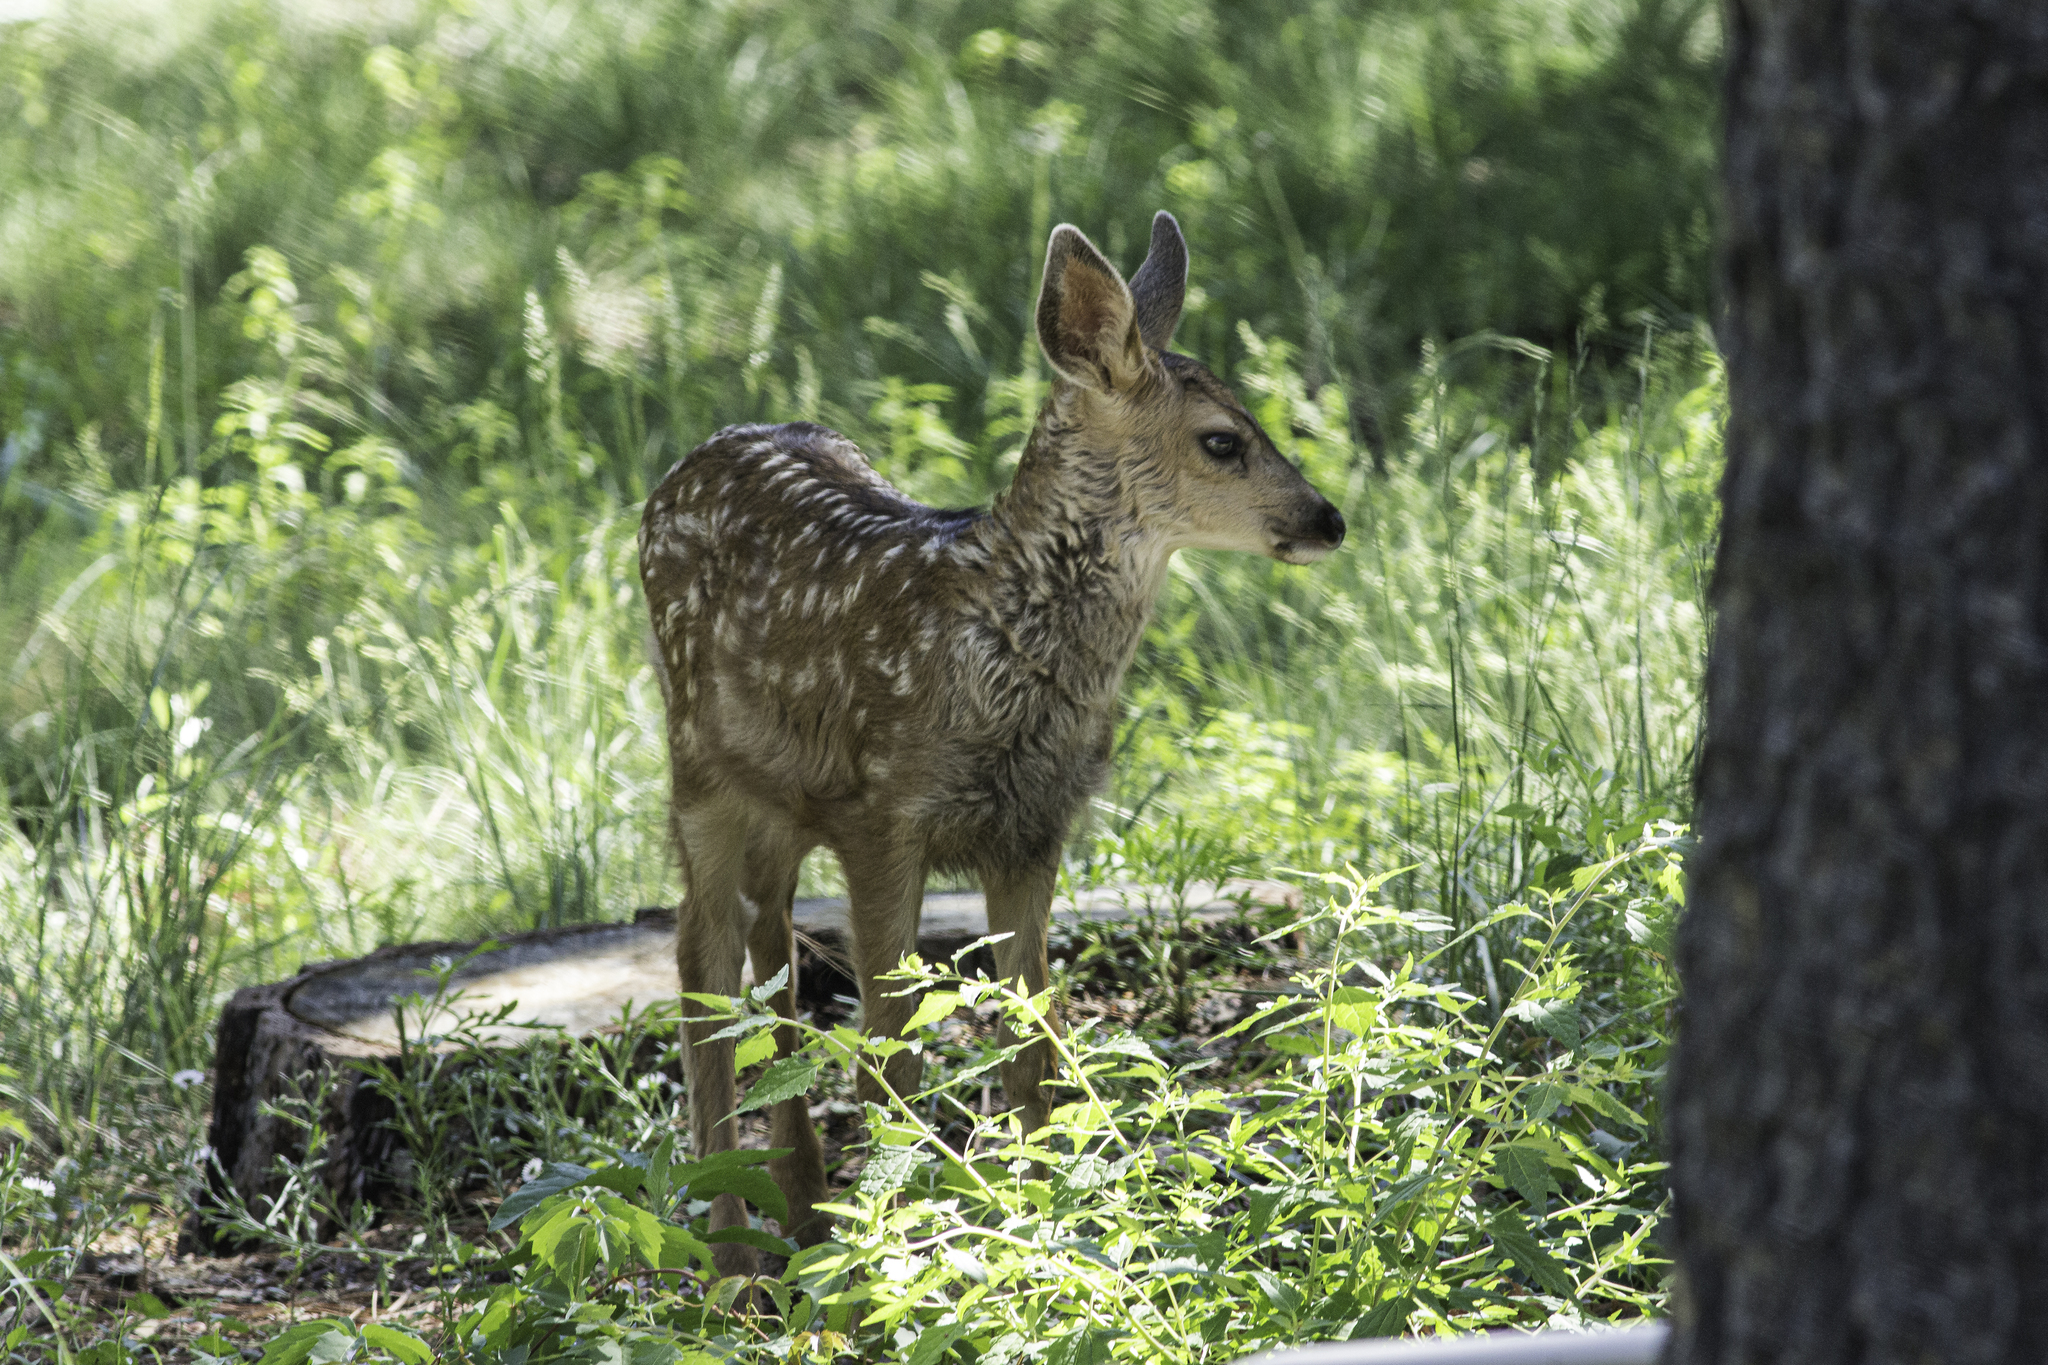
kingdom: Animalia
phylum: Chordata
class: Mammalia
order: Artiodactyla
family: Cervidae
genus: Odocoileus
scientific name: Odocoileus hemionus
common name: Mule deer
